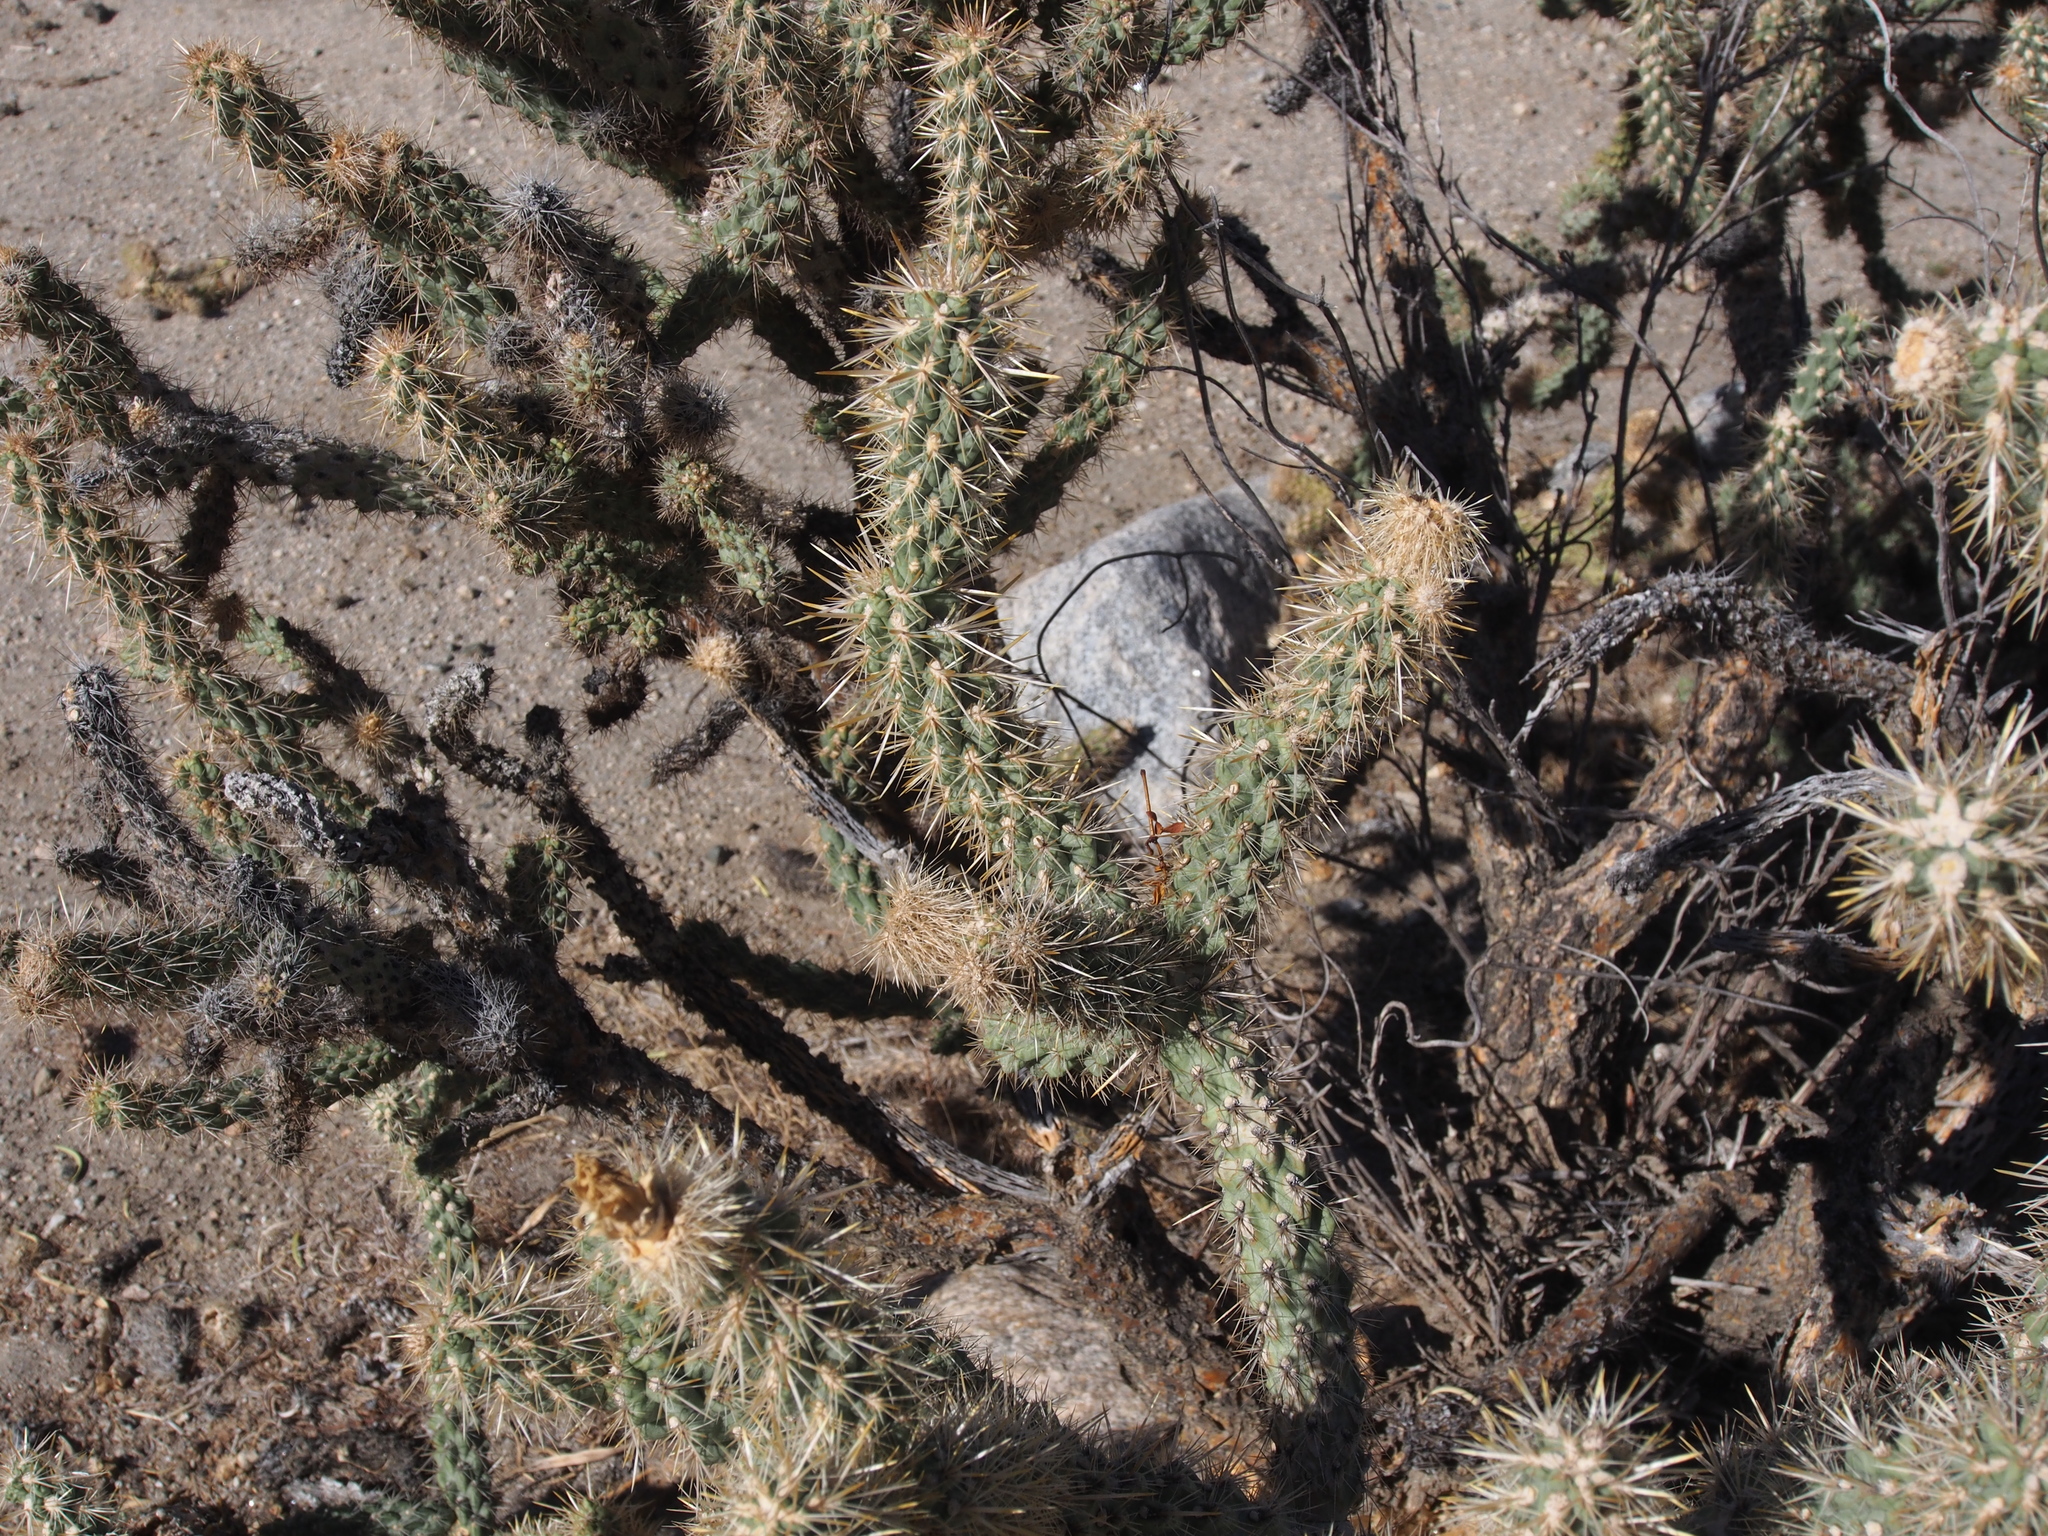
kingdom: Plantae
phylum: Tracheophyta
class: Magnoliopsida
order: Caryophyllales
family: Cactaceae
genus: Cylindropuntia
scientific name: Cylindropuntia echinocarpa
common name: Ground cholla
